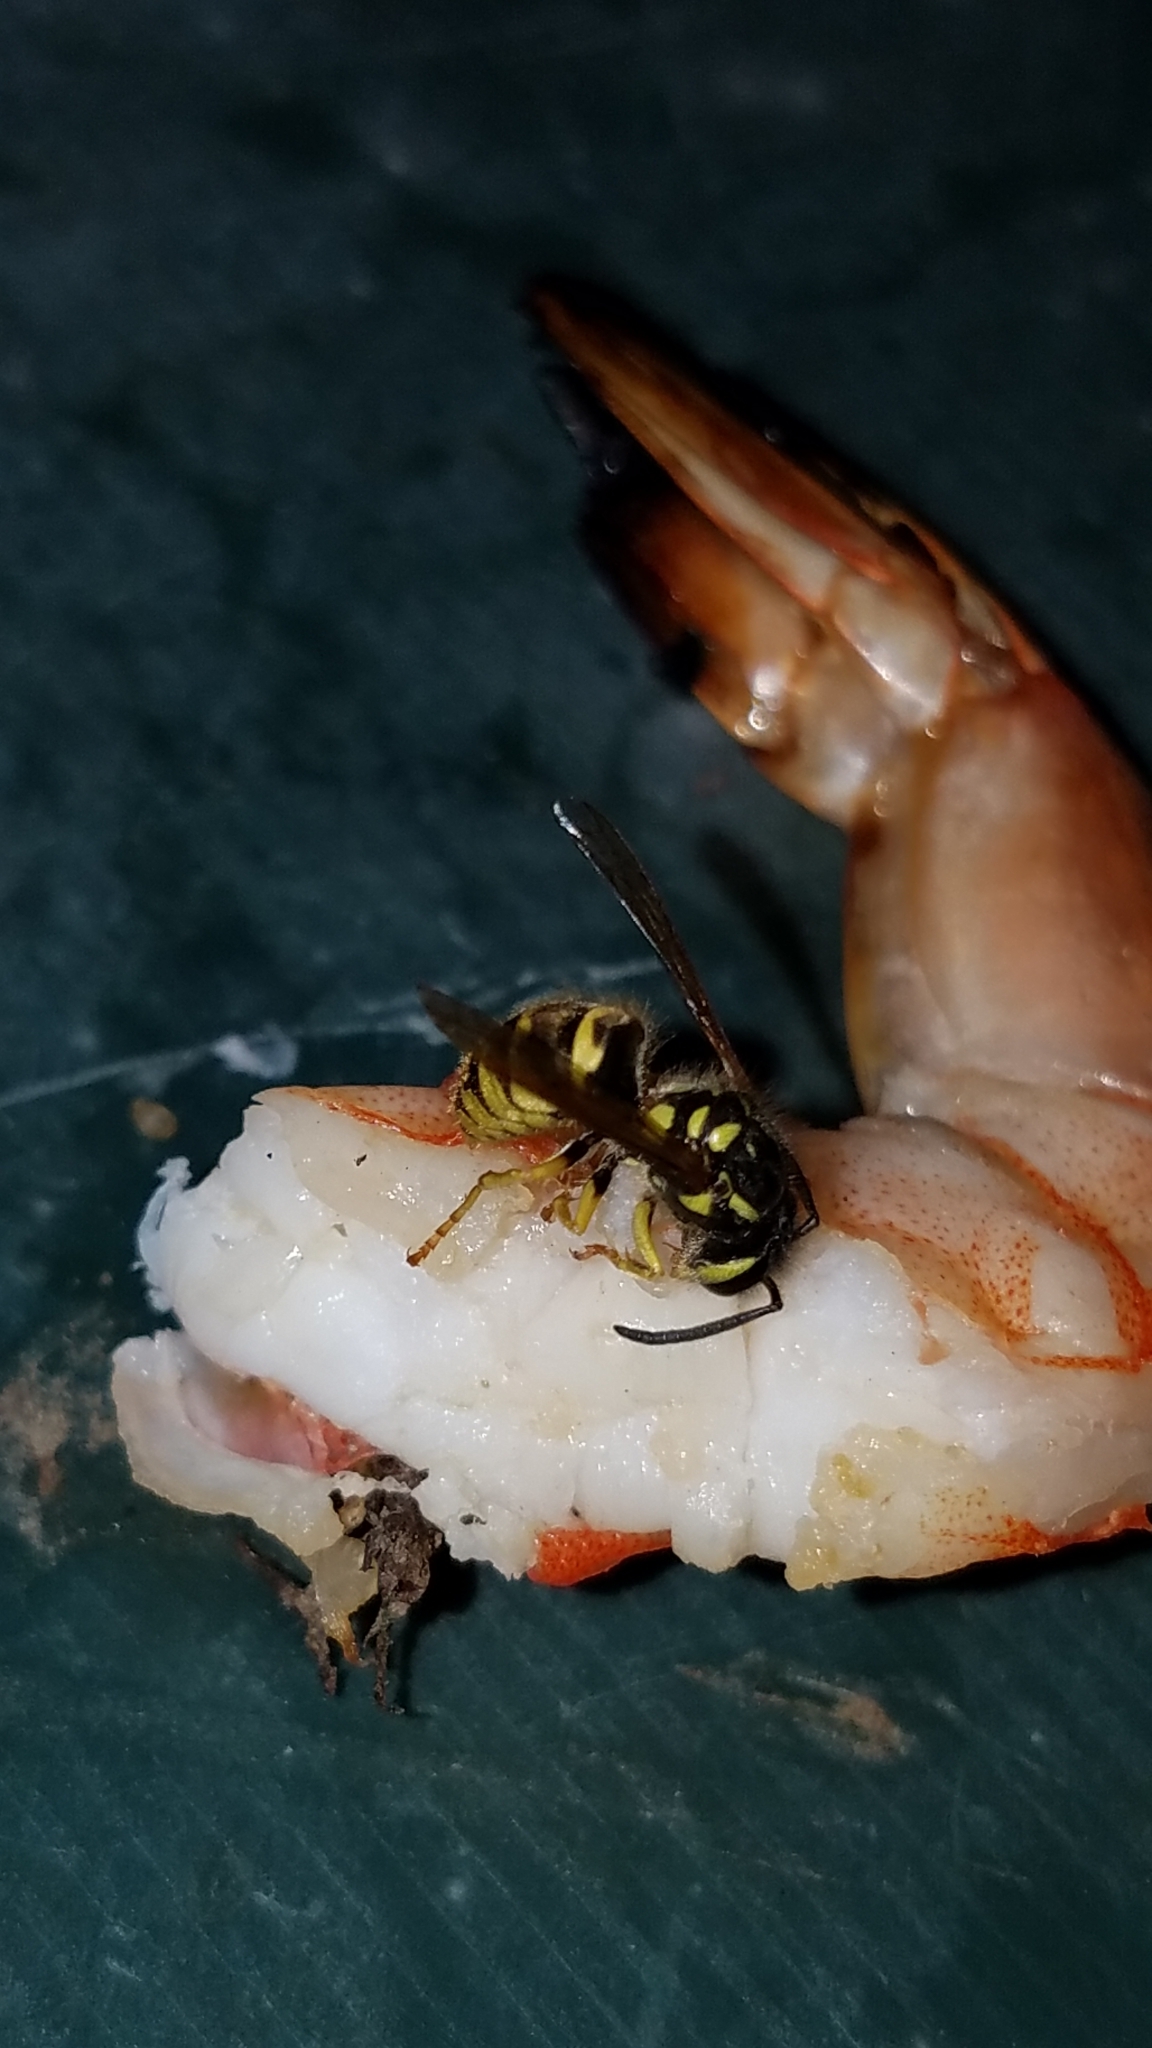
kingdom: Animalia
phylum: Arthropoda
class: Insecta
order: Hymenoptera
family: Vespidae
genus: Vespula
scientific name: Vespula germanica
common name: German wasp
